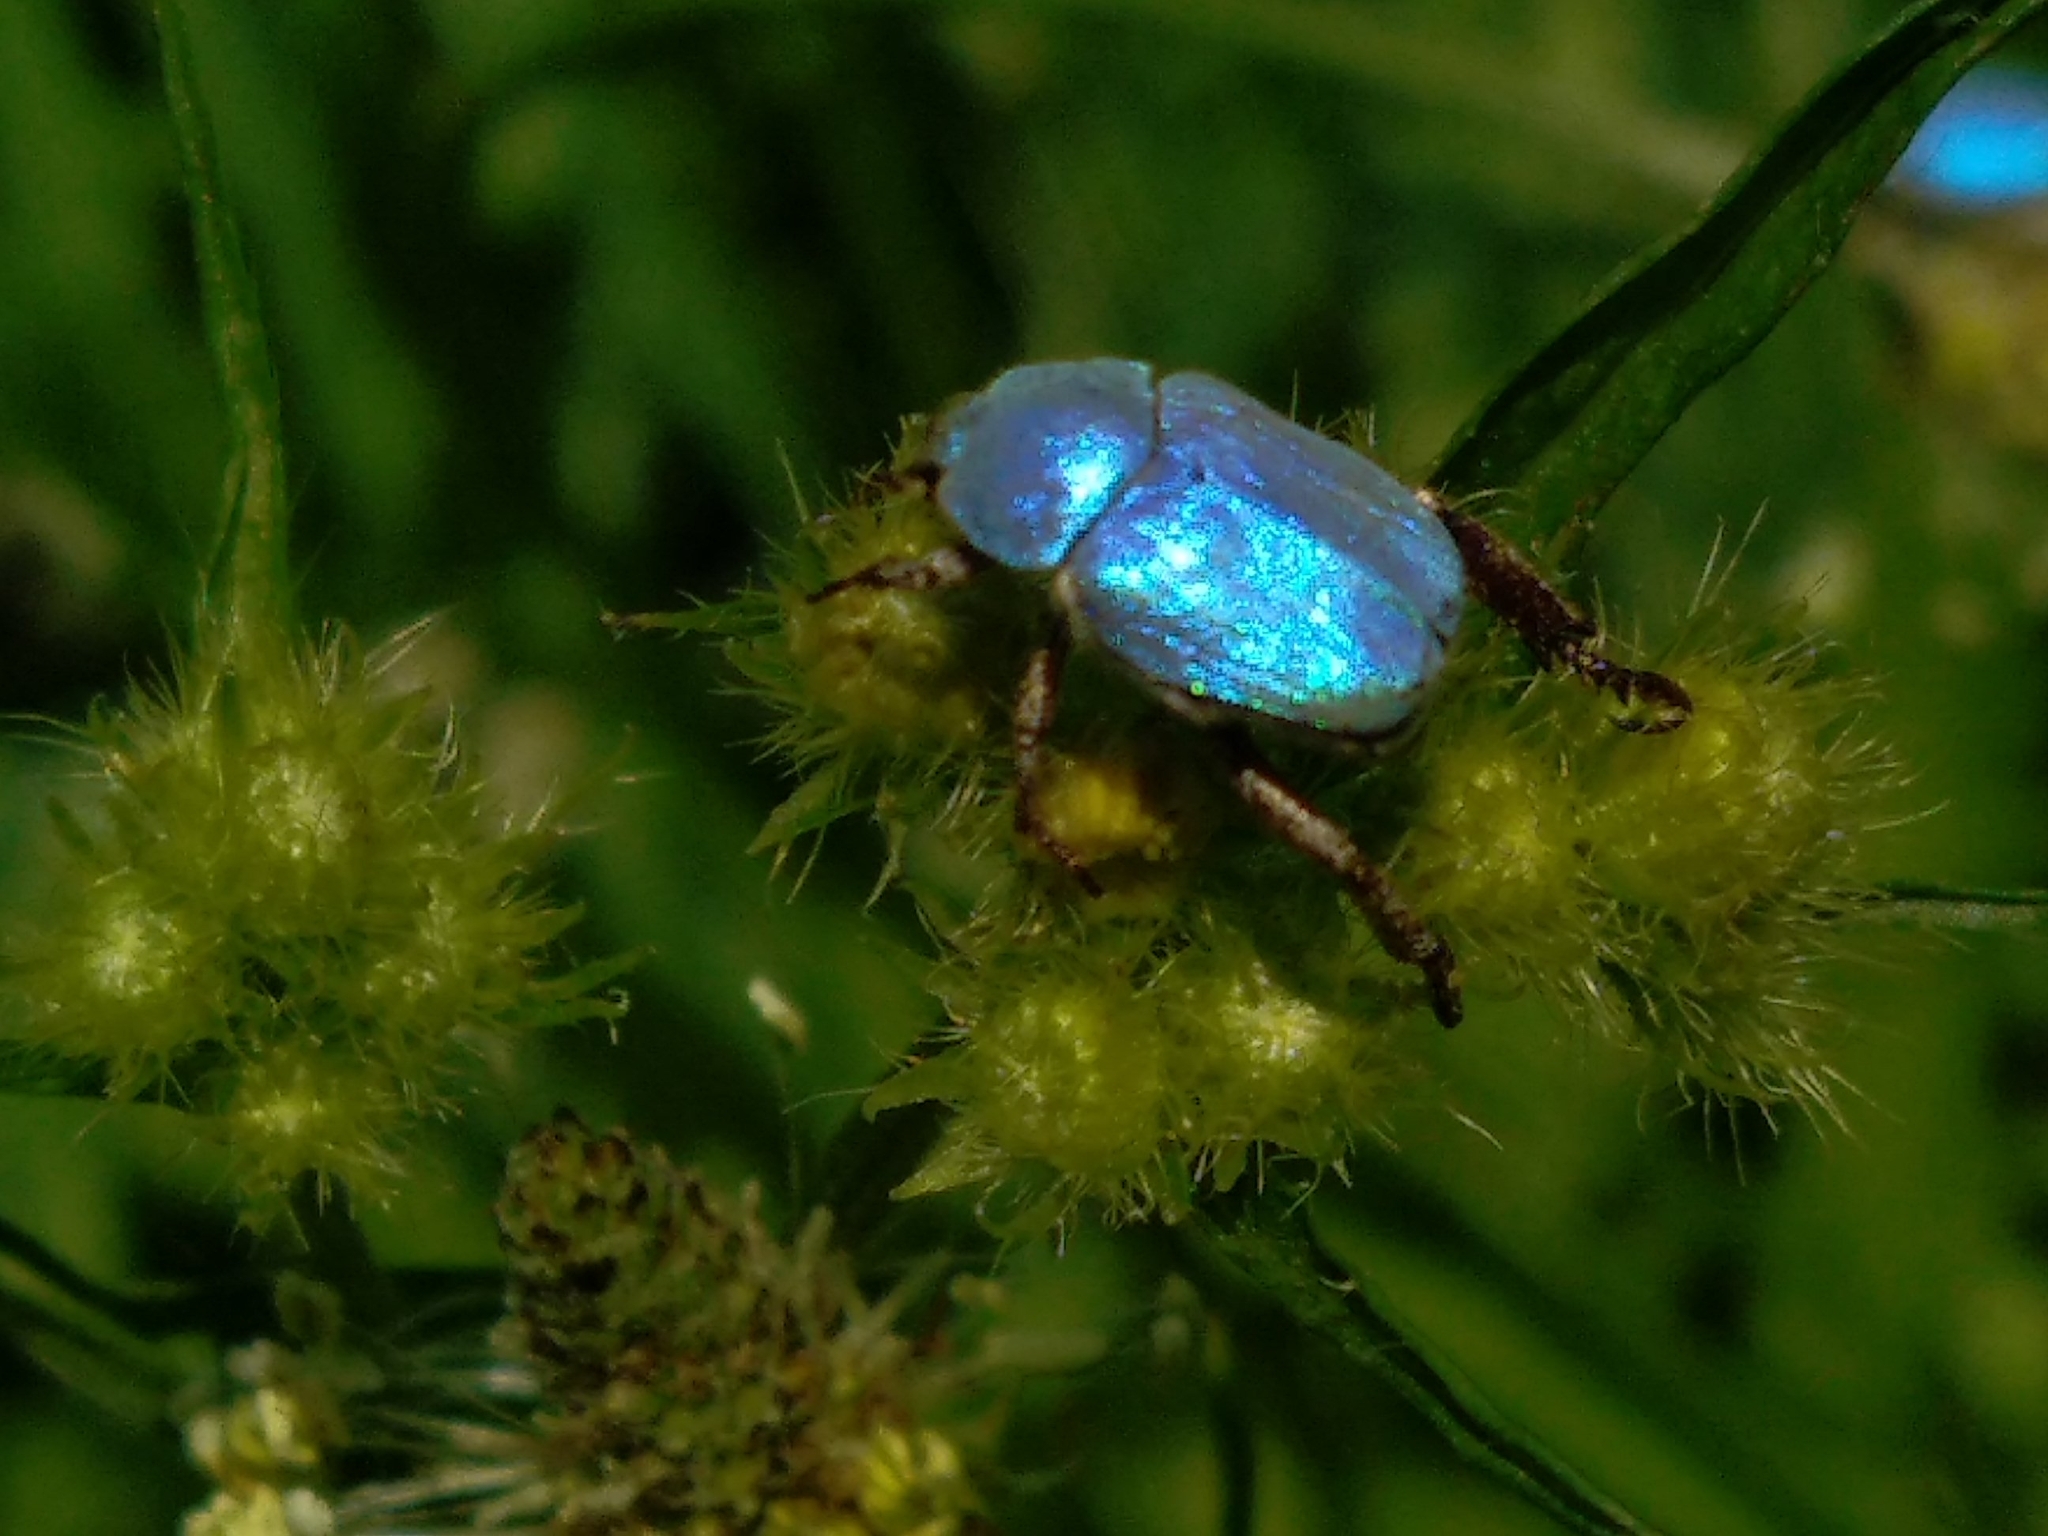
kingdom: Animalia
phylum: Arthropoda
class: Insecta
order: Coleoptera
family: Scarabaeidae
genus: Hoplia
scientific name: Hoplia coerulea
